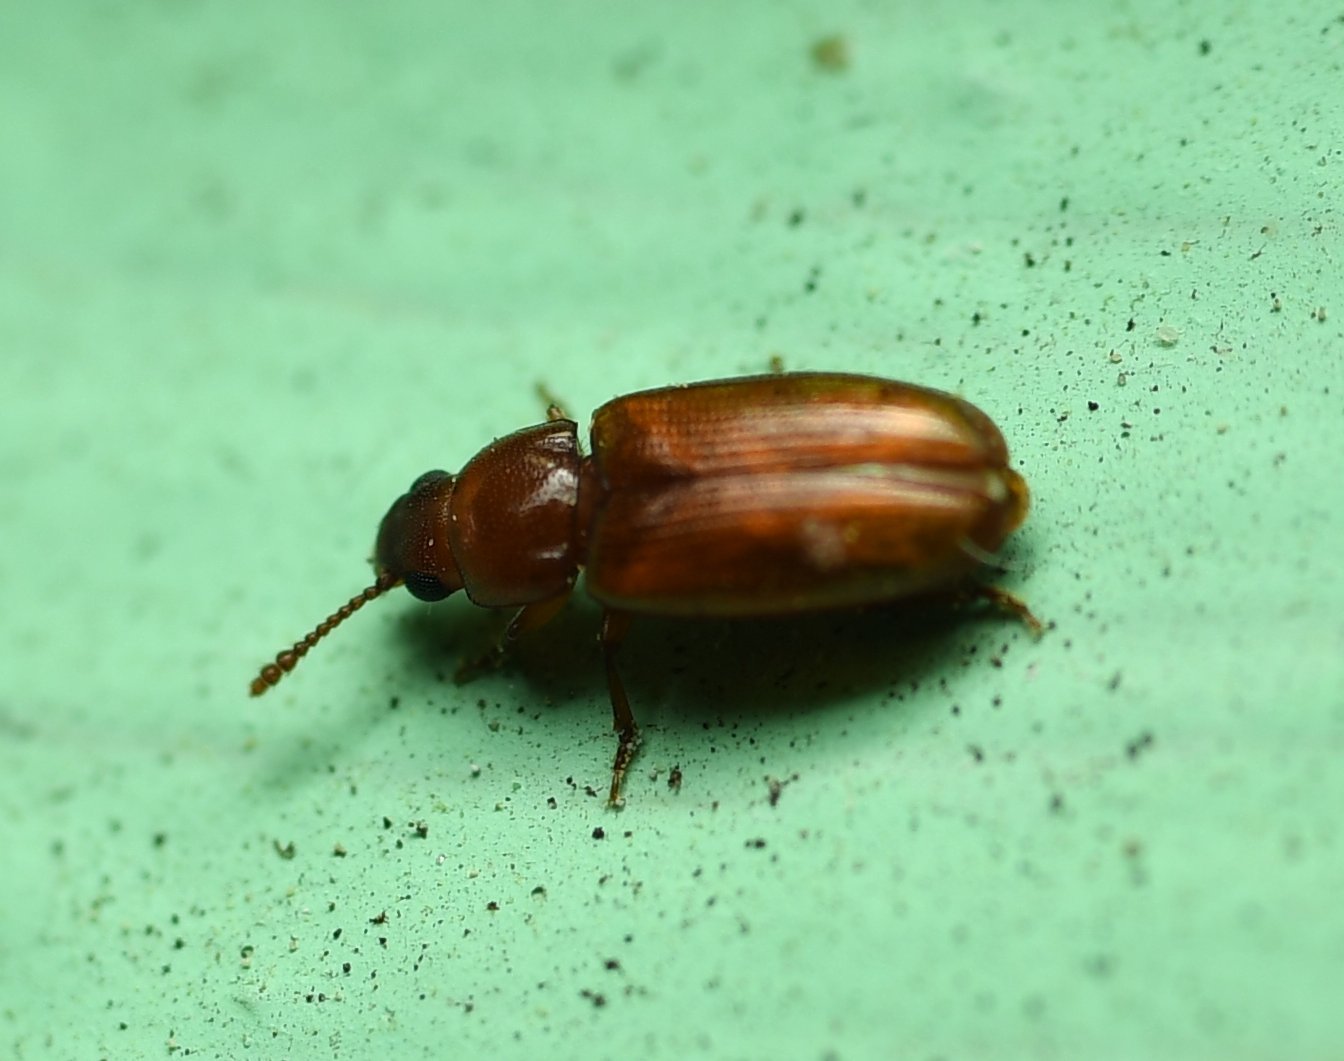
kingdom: Animalia
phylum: Arthropoda
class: Insecta
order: Coleoptera
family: Erotylidae
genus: Pharaxonotha
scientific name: Pharaxonotha floridana
